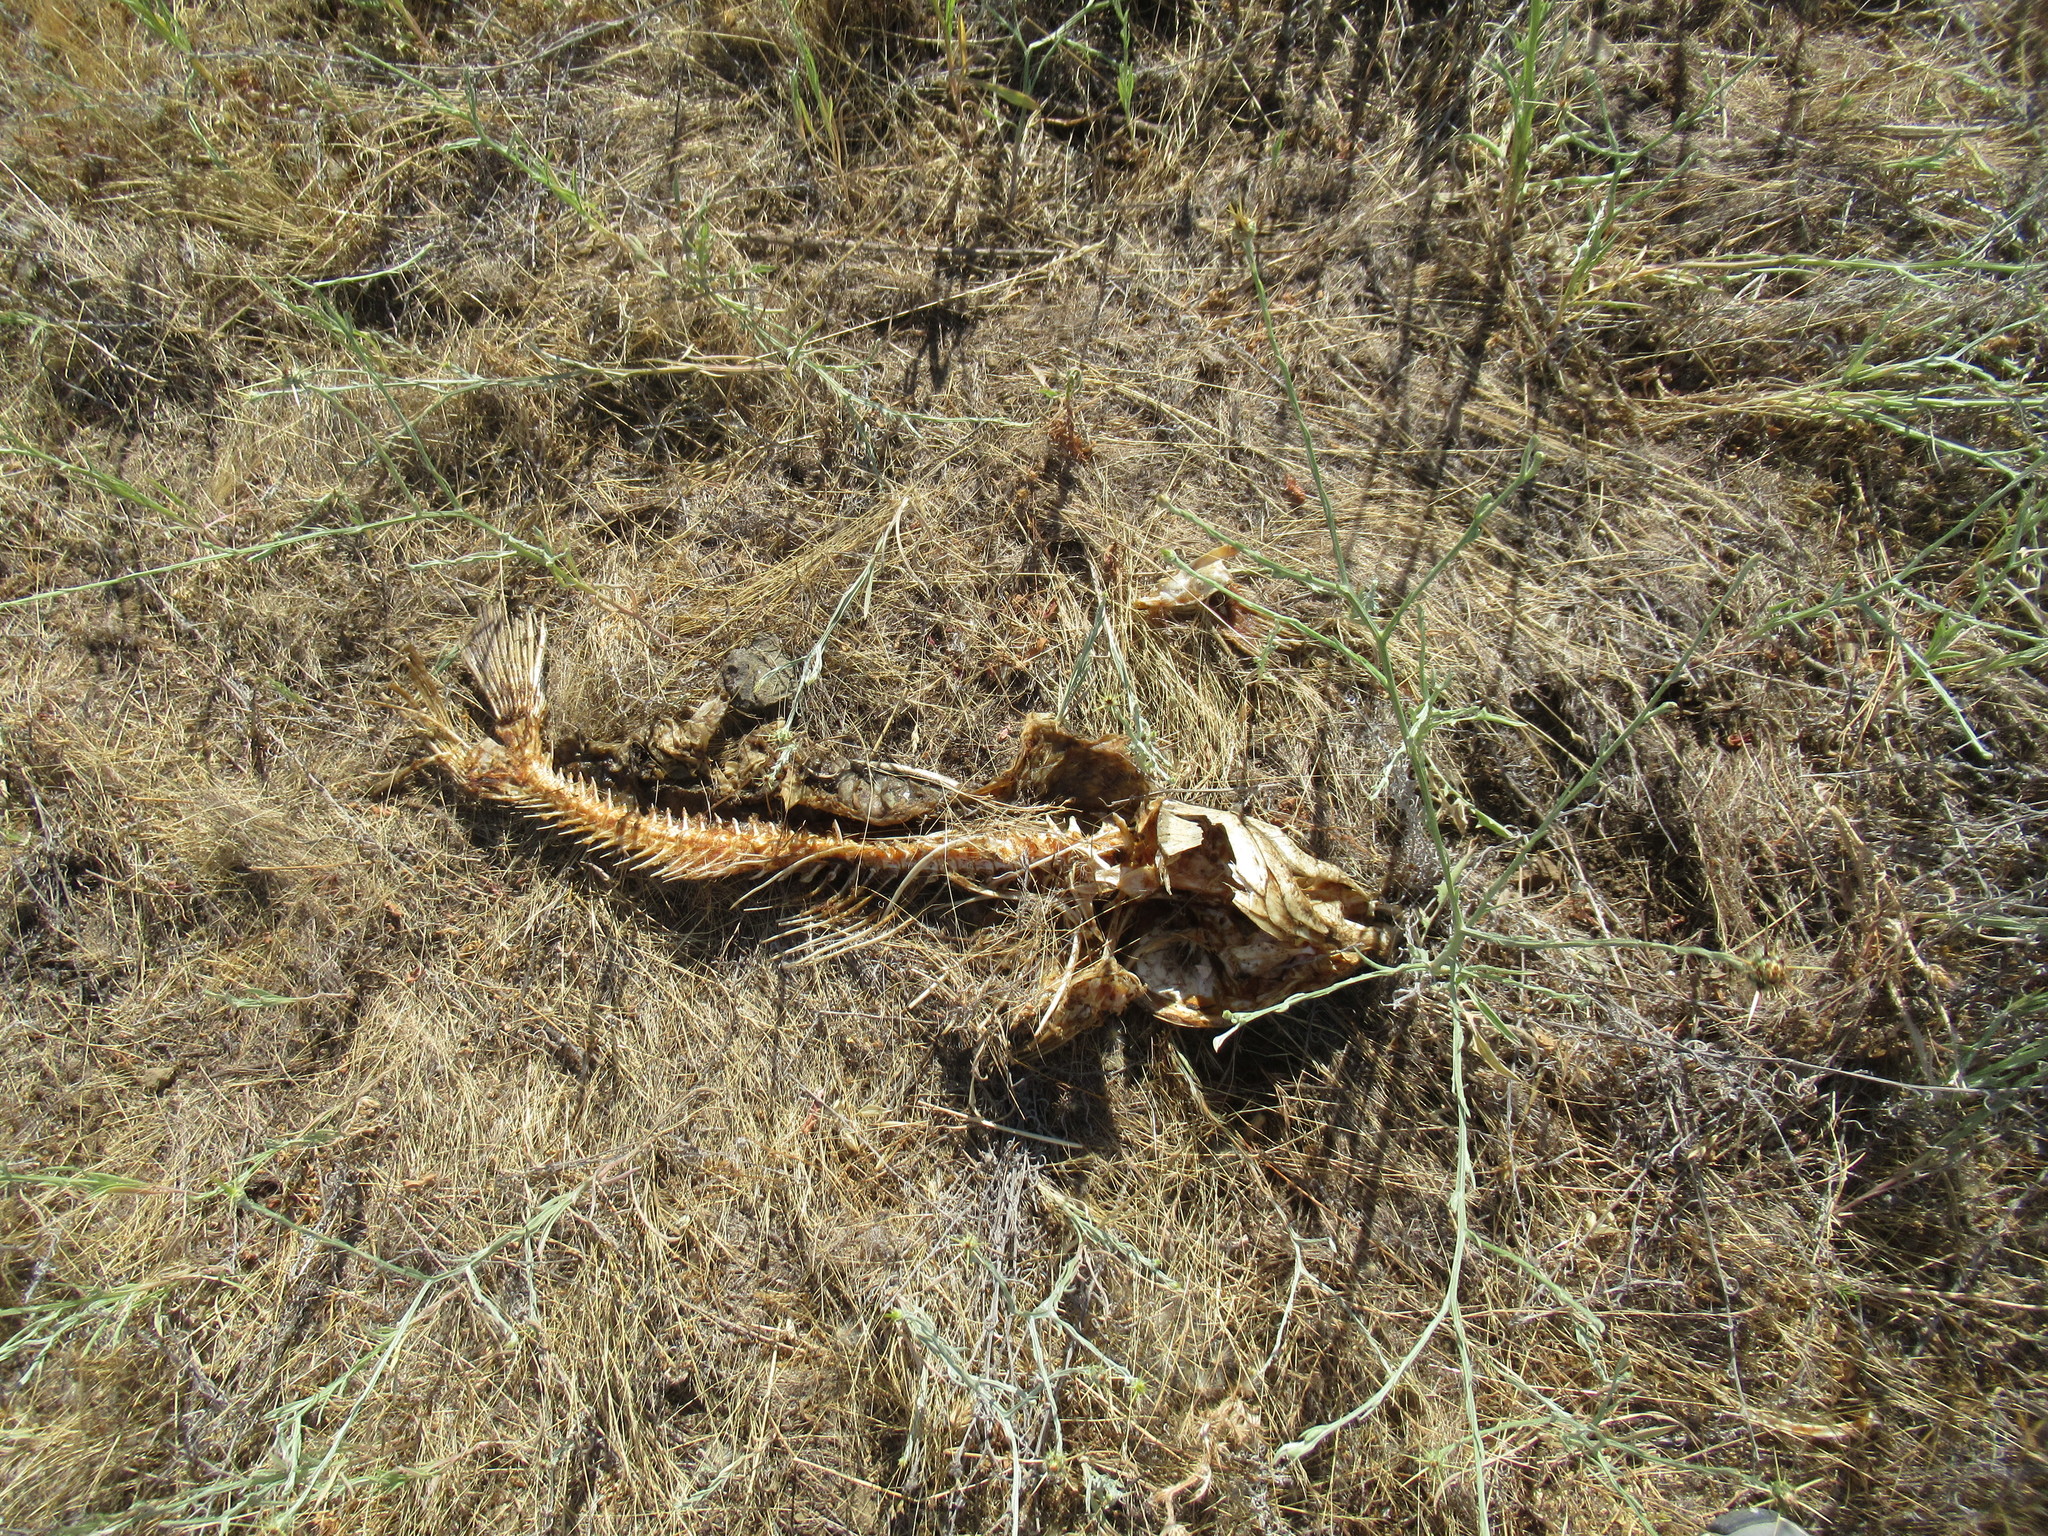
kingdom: Animalia
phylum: Chordata
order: Cypriniformes
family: Cyprinidae
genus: Cyprinus
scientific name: Cyprinus carpio
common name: Common carp
